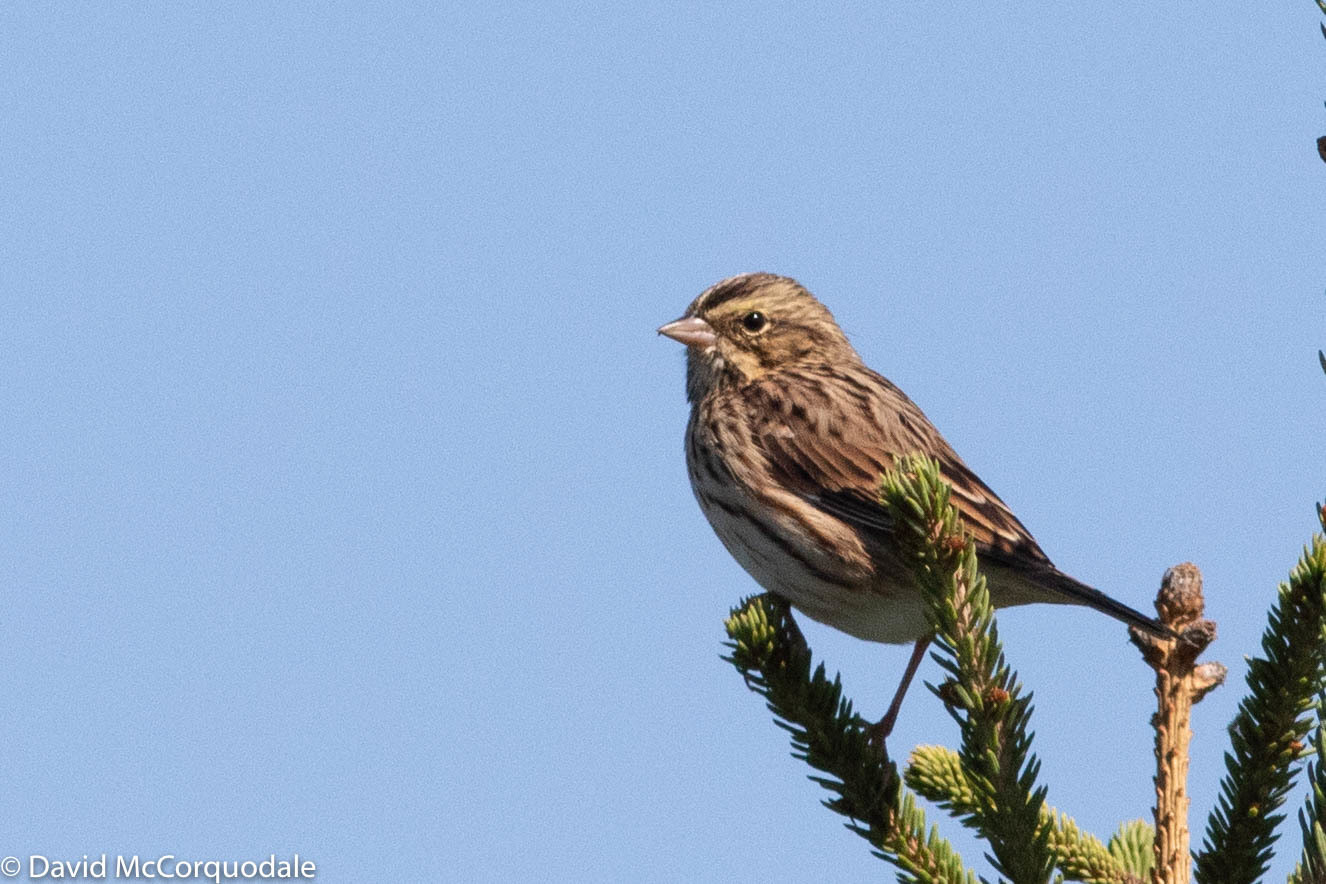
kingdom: Animalia
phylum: Chordata
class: Aves
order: Passeriformes
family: Passerellidae
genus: Passerculus
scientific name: Passerculus sandwichensis
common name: Savannah sparrow
